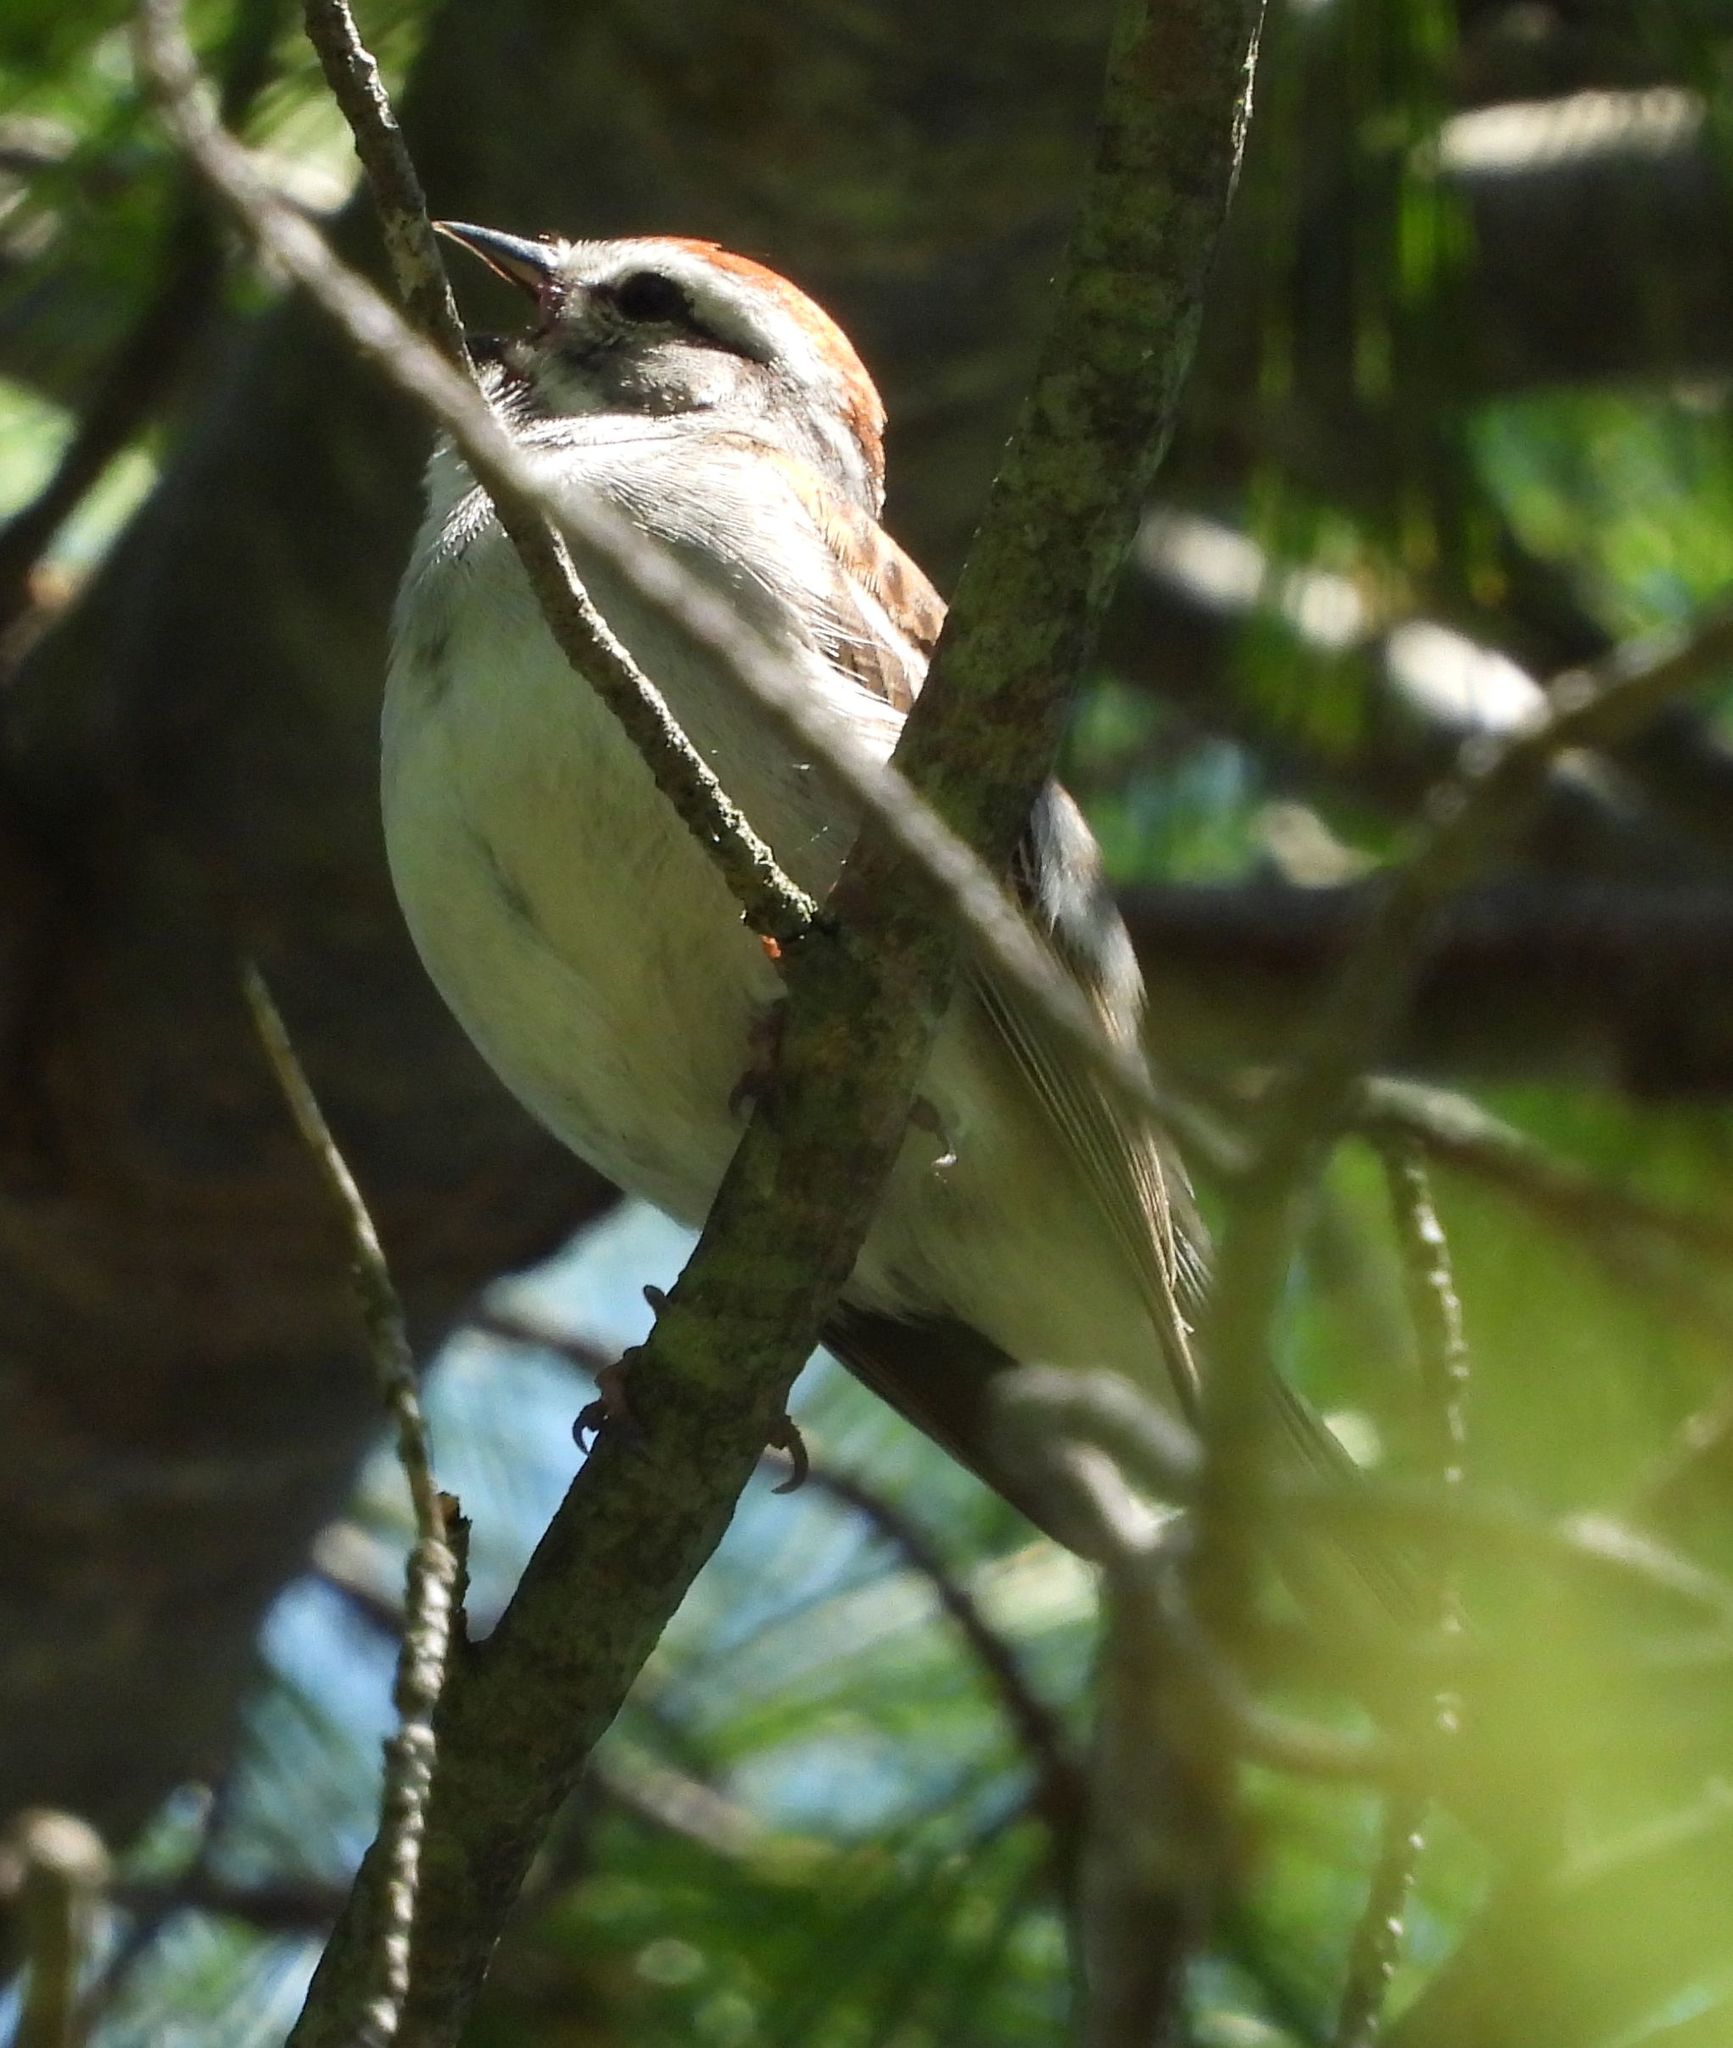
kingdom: Animalia
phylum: Chordata
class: Aves
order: Passeriformes
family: Passerellidae
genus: Spizella
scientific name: Spizella passerina
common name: Chipping sparrow
